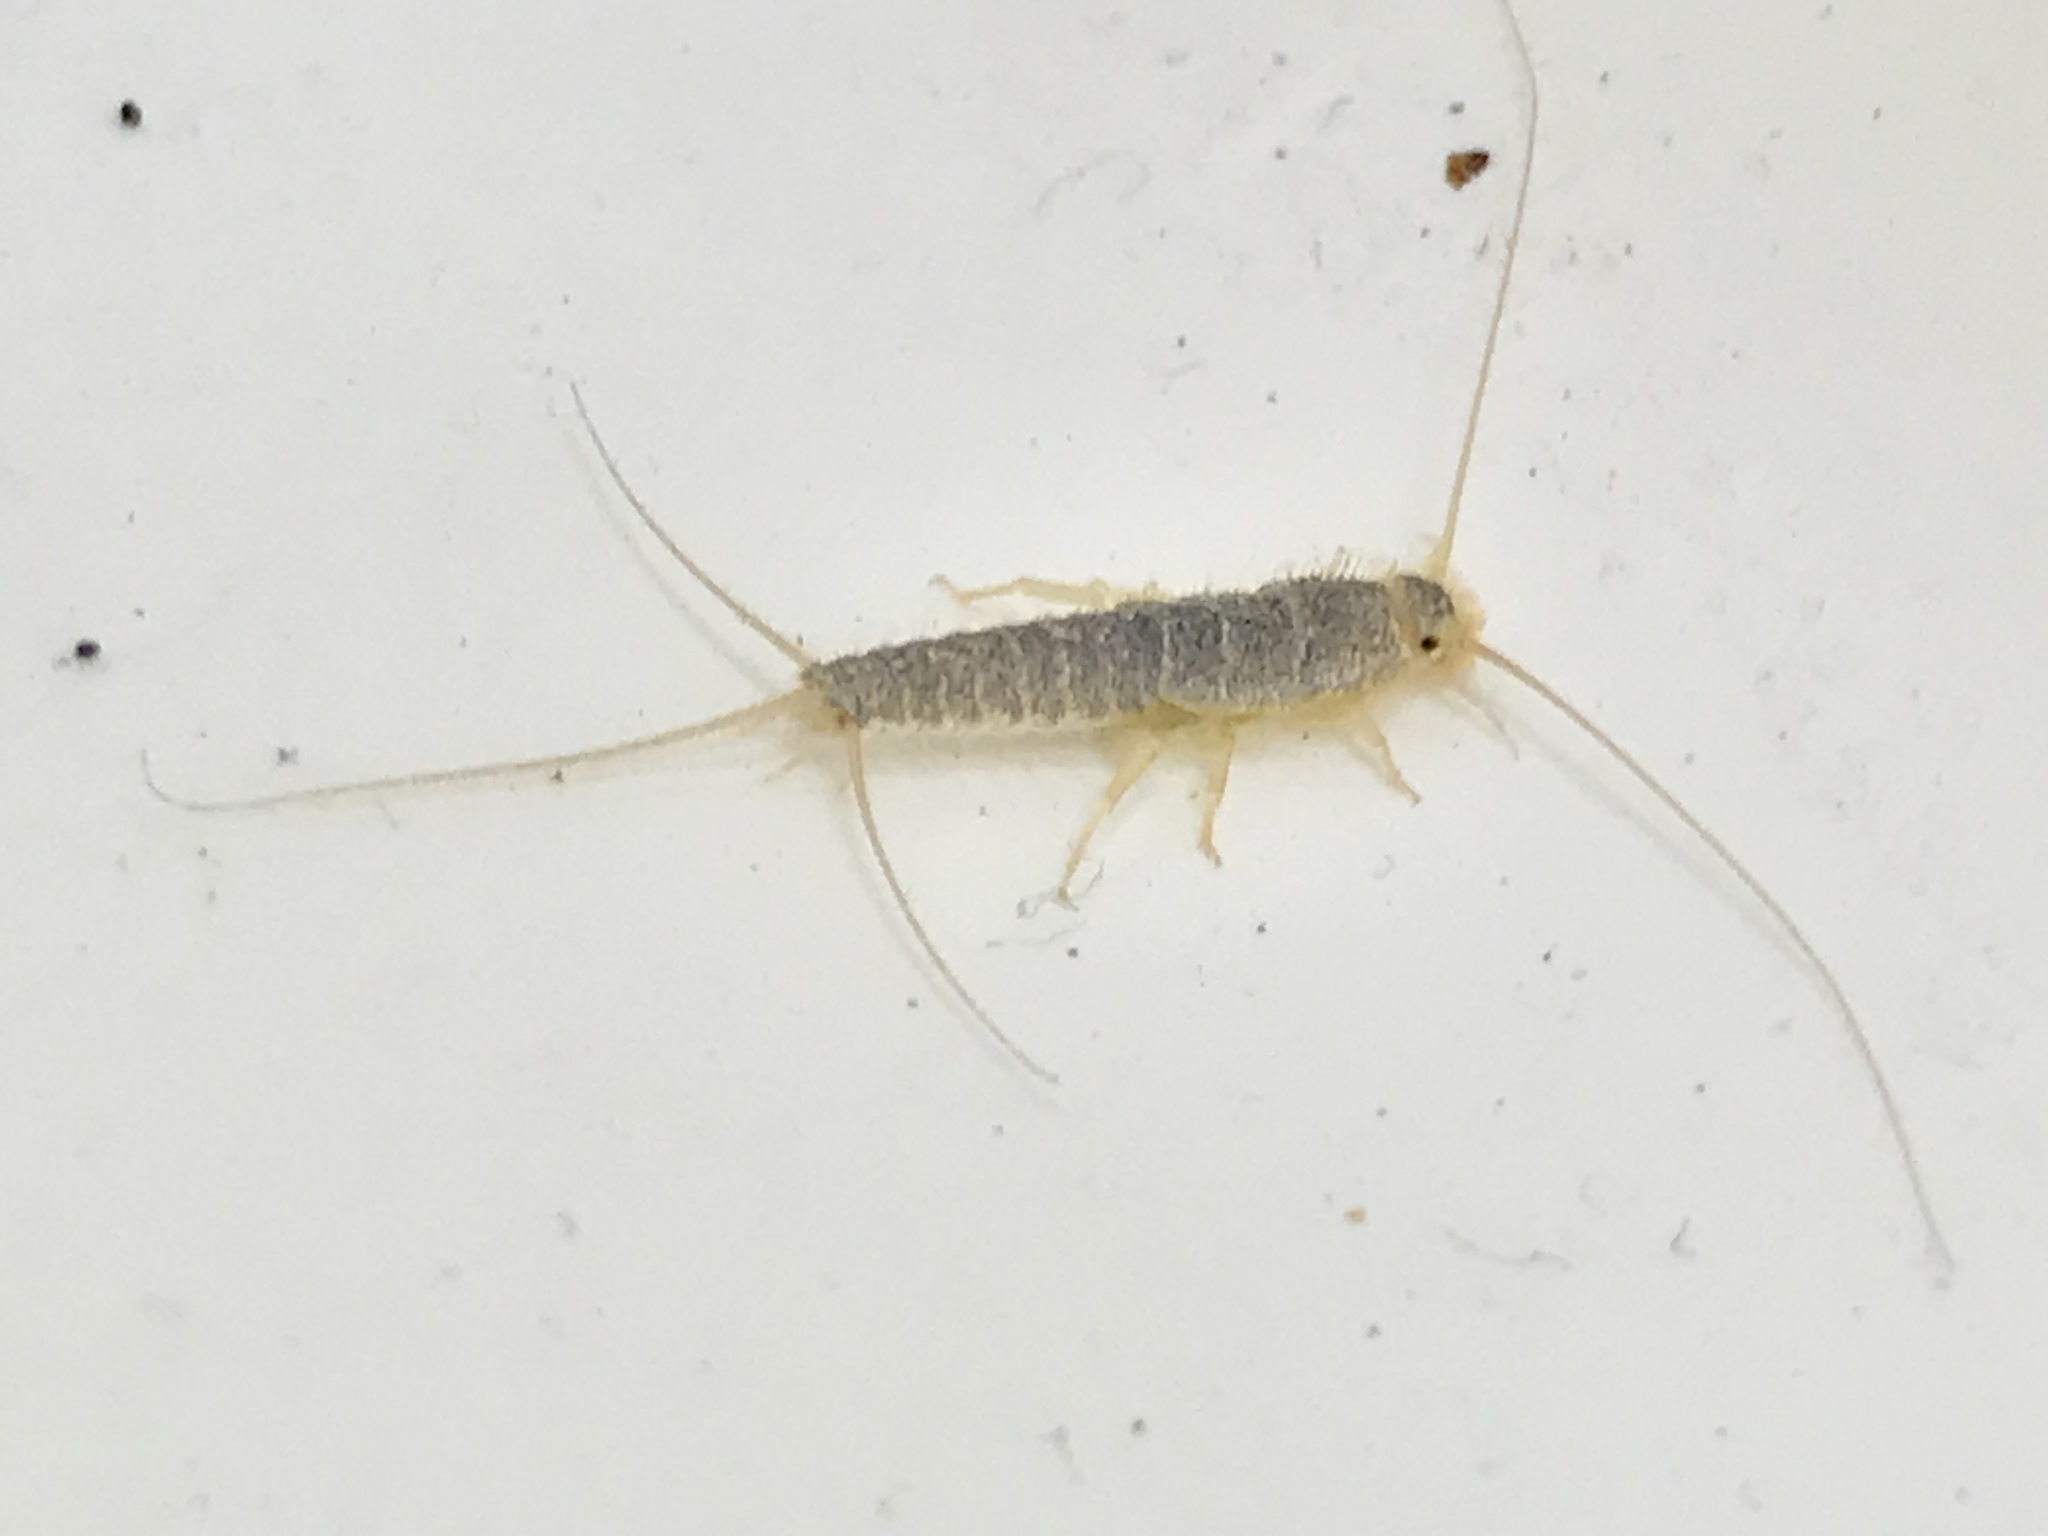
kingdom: Animalia
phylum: Arthropoda
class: Insecta
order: Zygentoma
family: Lepismatidae
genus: Ctenolepisma
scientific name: Ctenolepisma longicaudatum
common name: Silverfish
